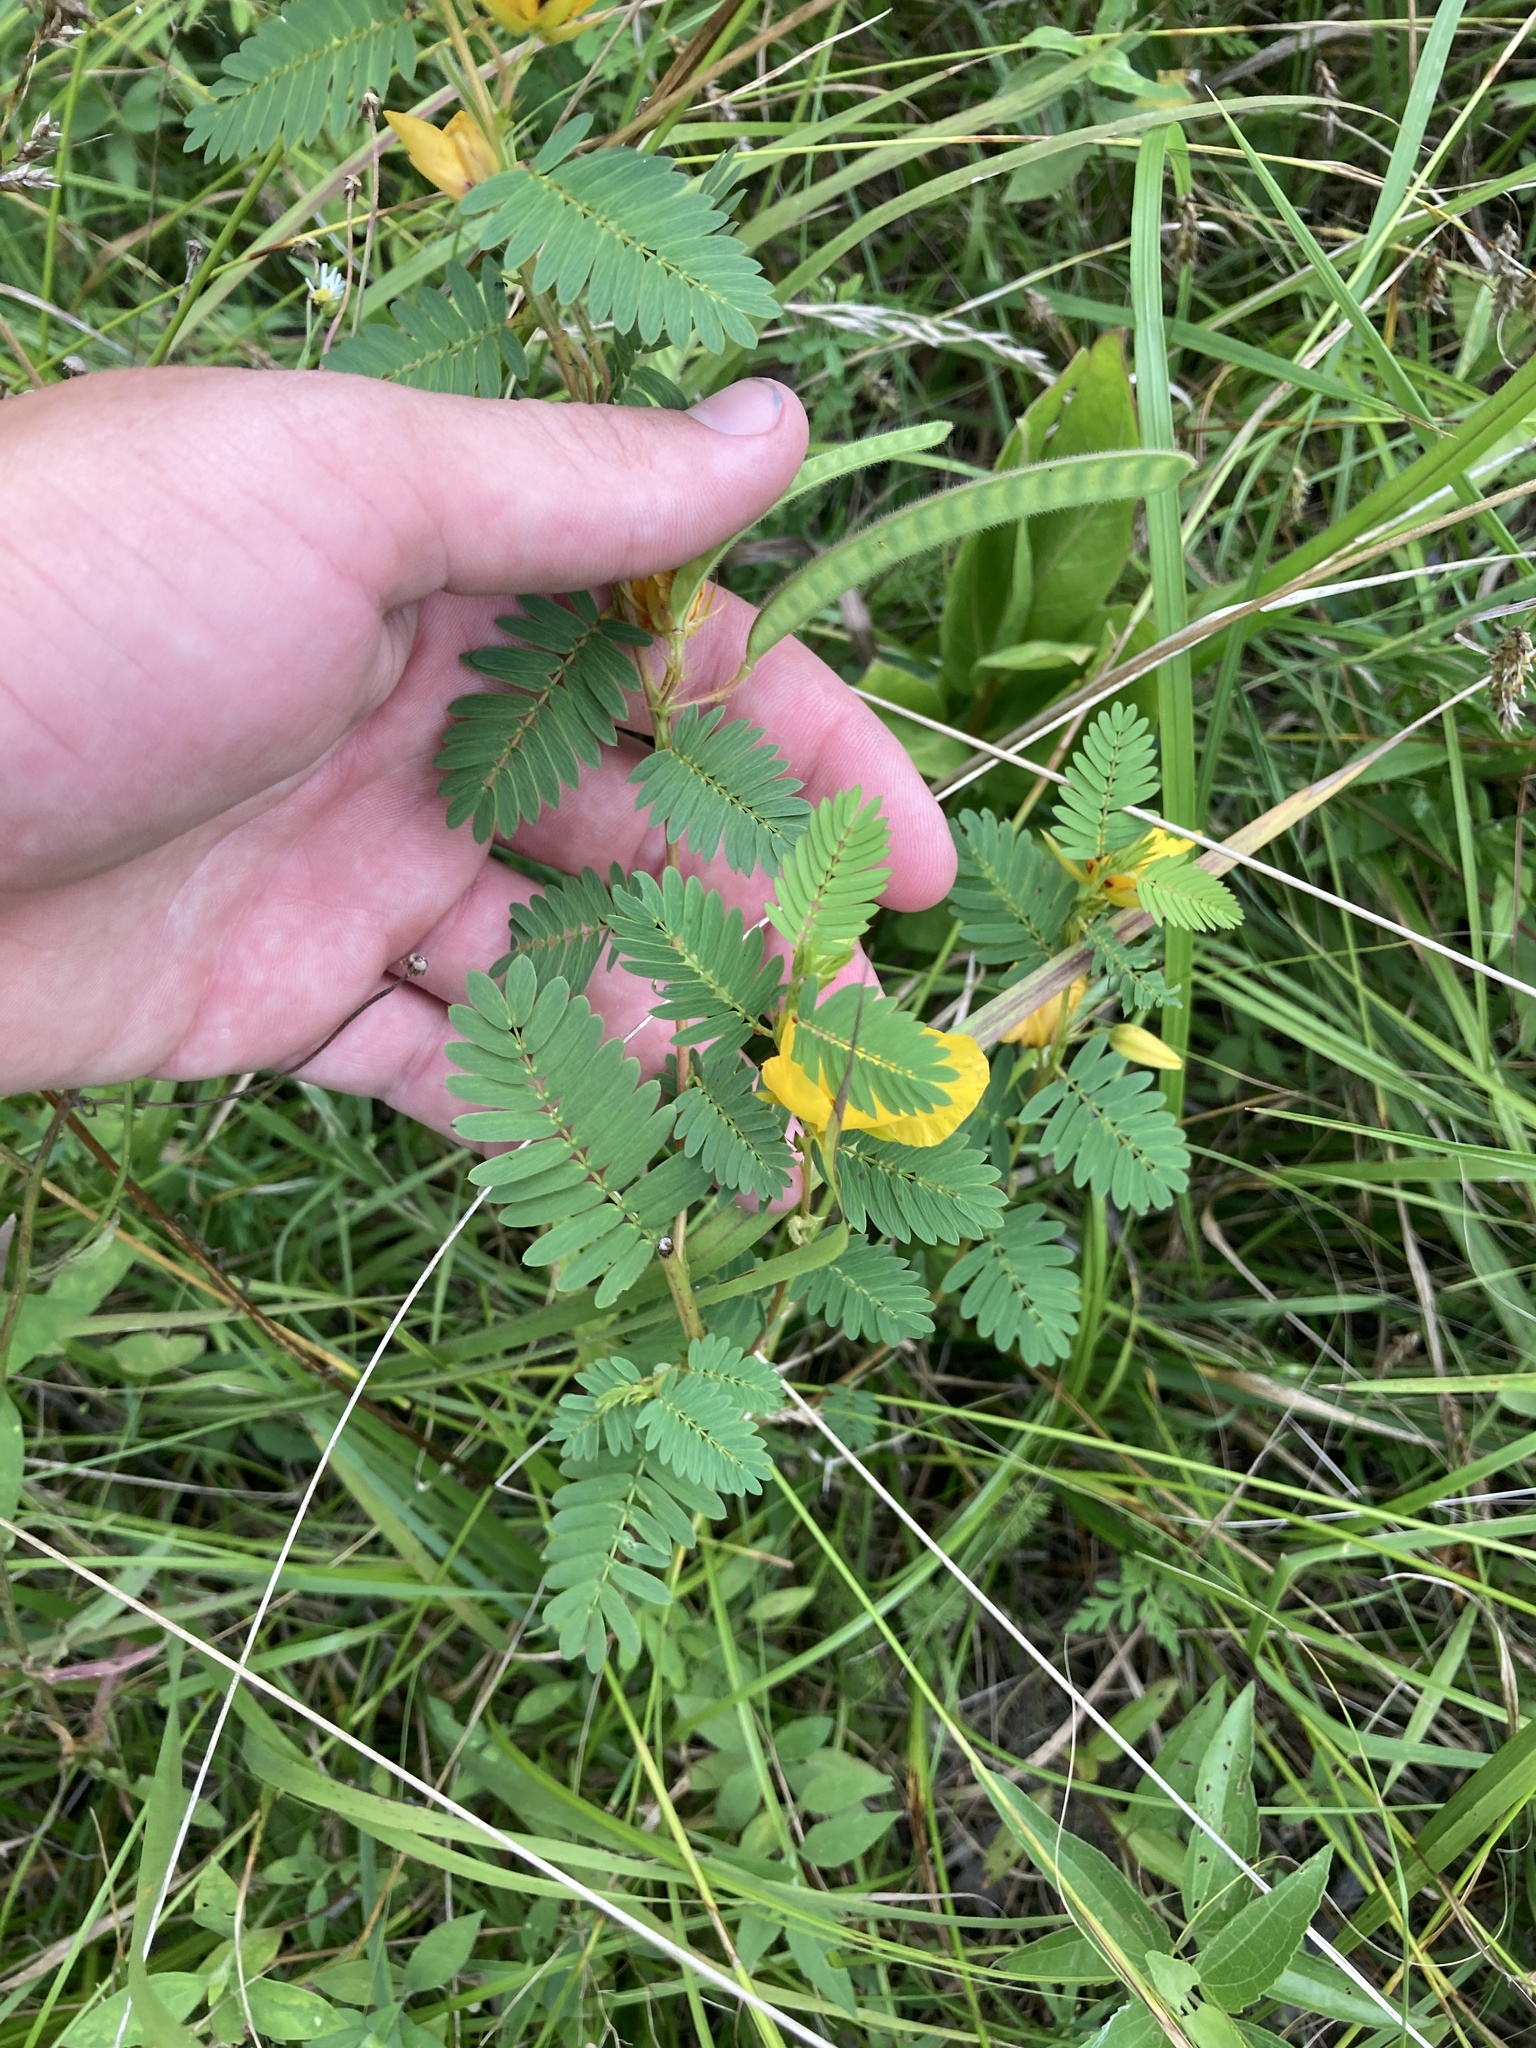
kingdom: Plantae
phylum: Tracheophyta
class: Magnoliopsida
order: Fabales
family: Fabaceae
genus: Chamaecrista
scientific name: Chamaecrista fasciculata
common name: Golden cassia
